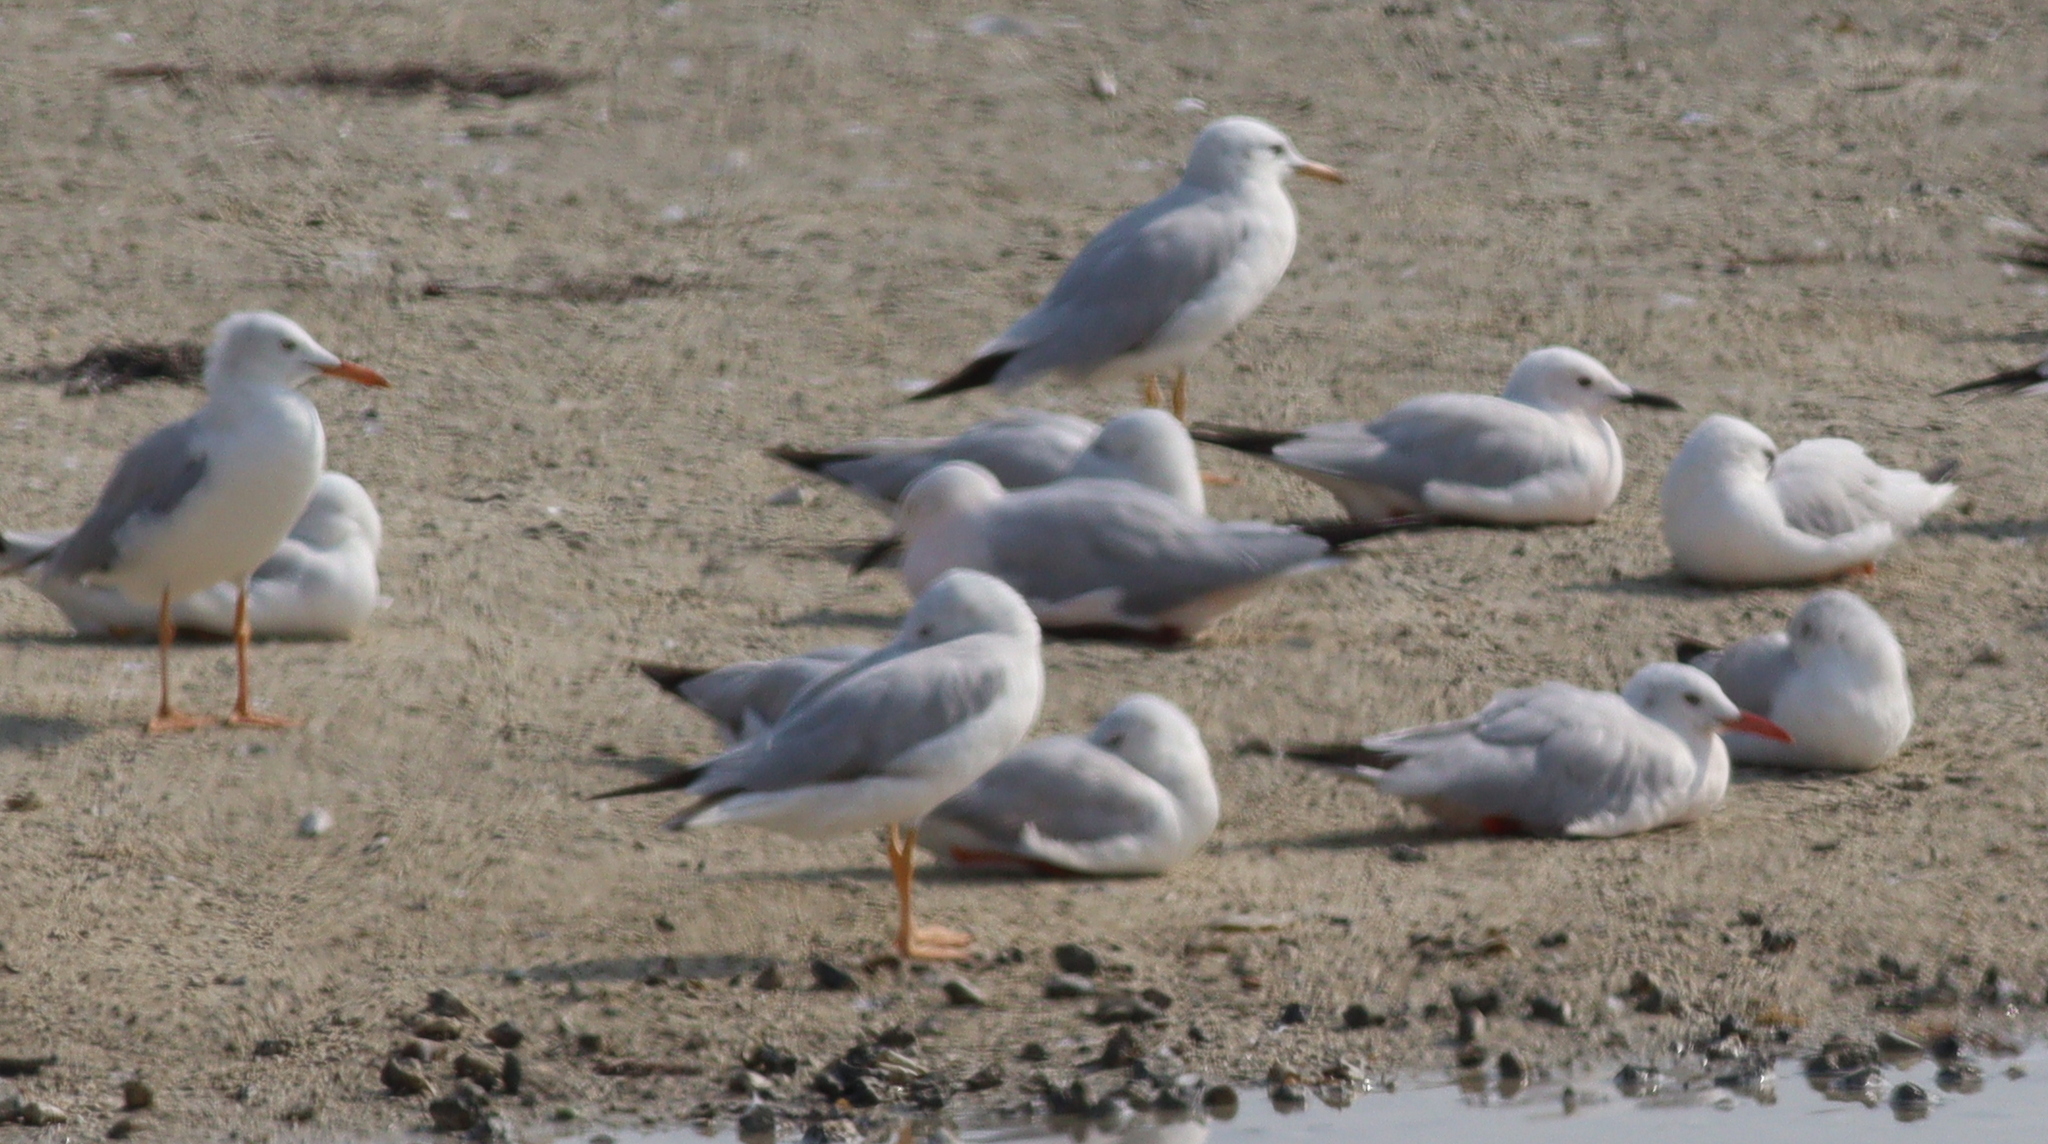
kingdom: Animalia
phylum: Chordata
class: Aves
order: Charadriiformes
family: Laridae
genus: Chroicocephalus
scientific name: Chroicocephalus genei
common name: Slender-billed gull
